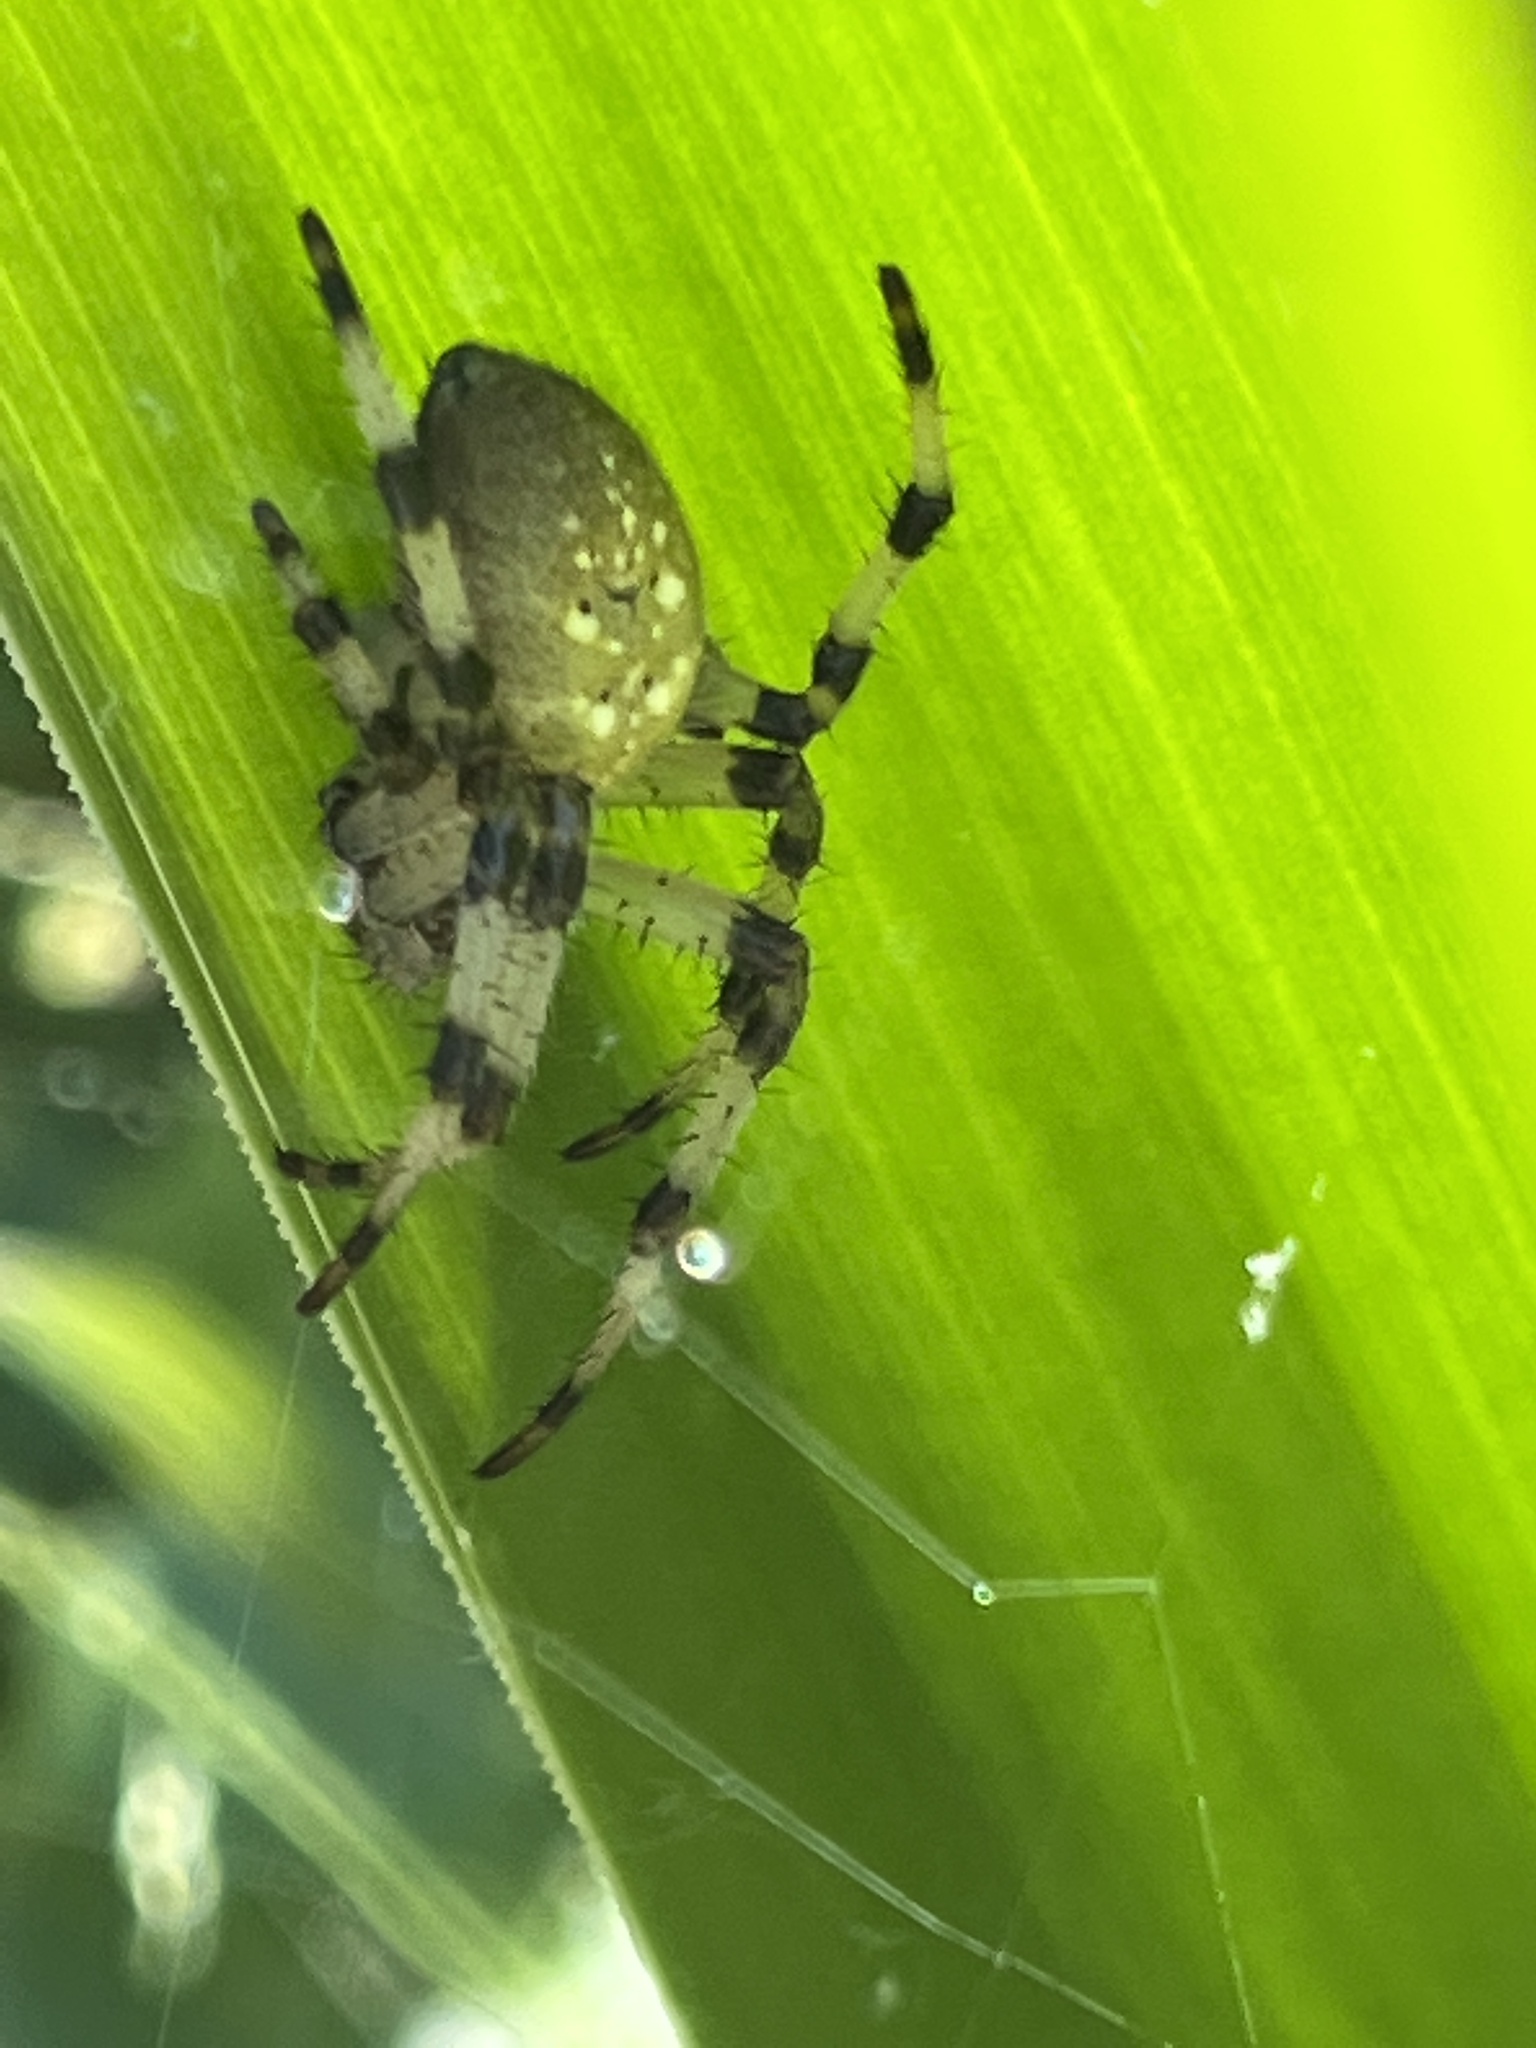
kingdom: Animalia
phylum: Arthropoda
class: Arachnida
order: Araneae
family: Araneidae
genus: Araneus
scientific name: Araneus trifolium
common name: Shamrock orbweaver
